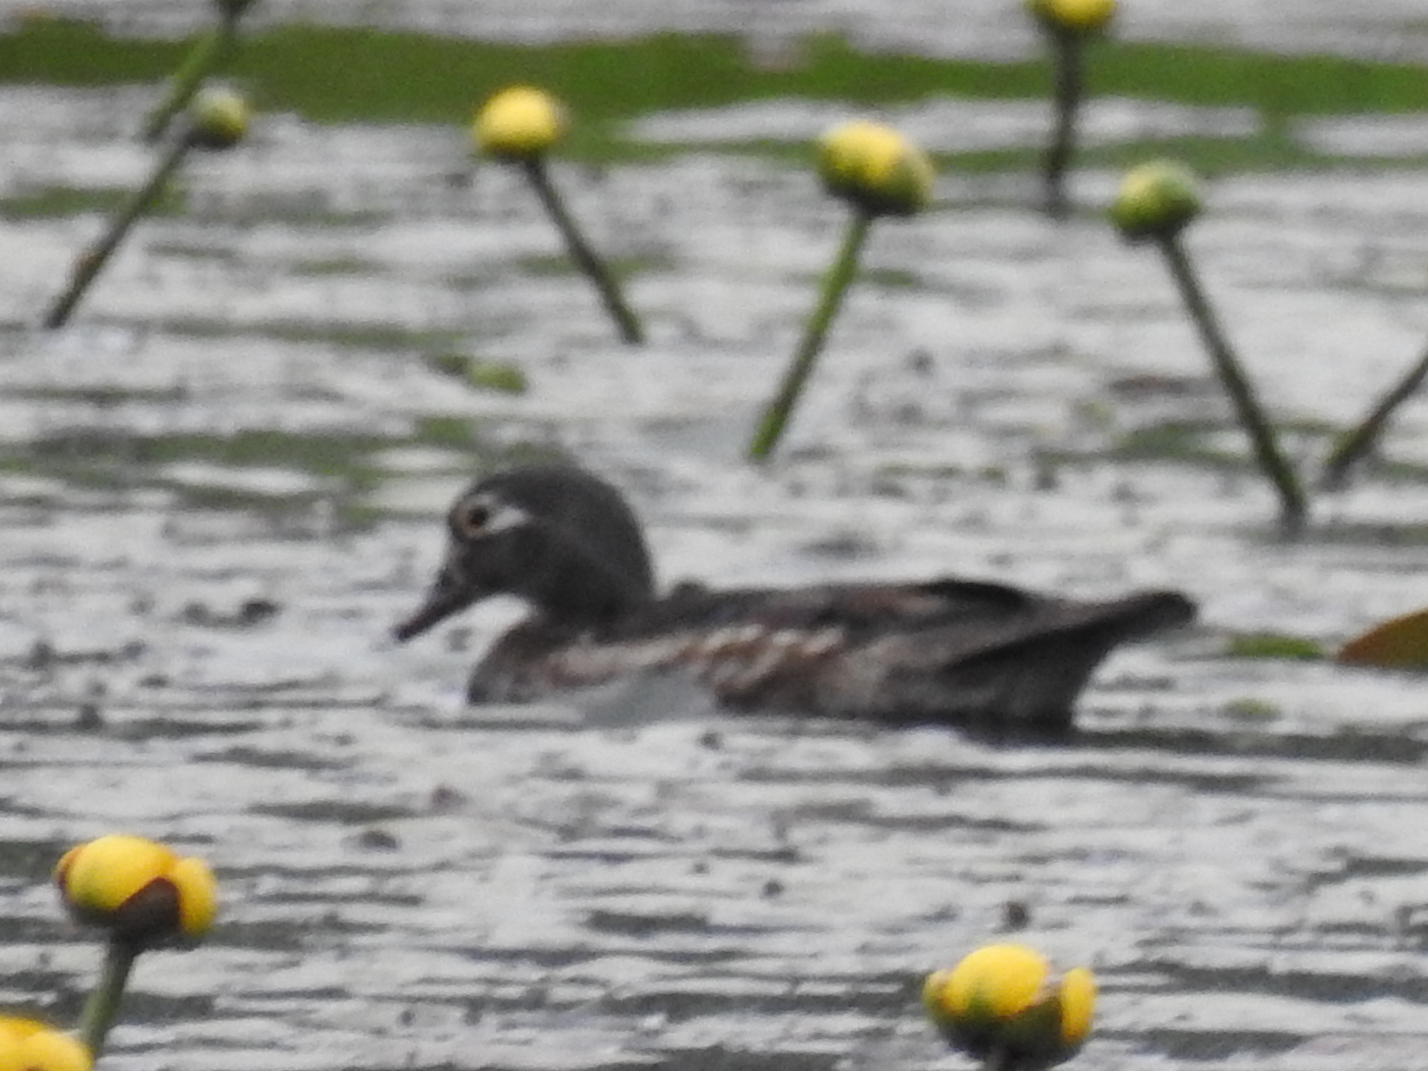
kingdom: Animalia
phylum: Chordata
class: Aves
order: Anseriformes
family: Anatidae
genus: Aix
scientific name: Aix sponsa
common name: Wood duck
